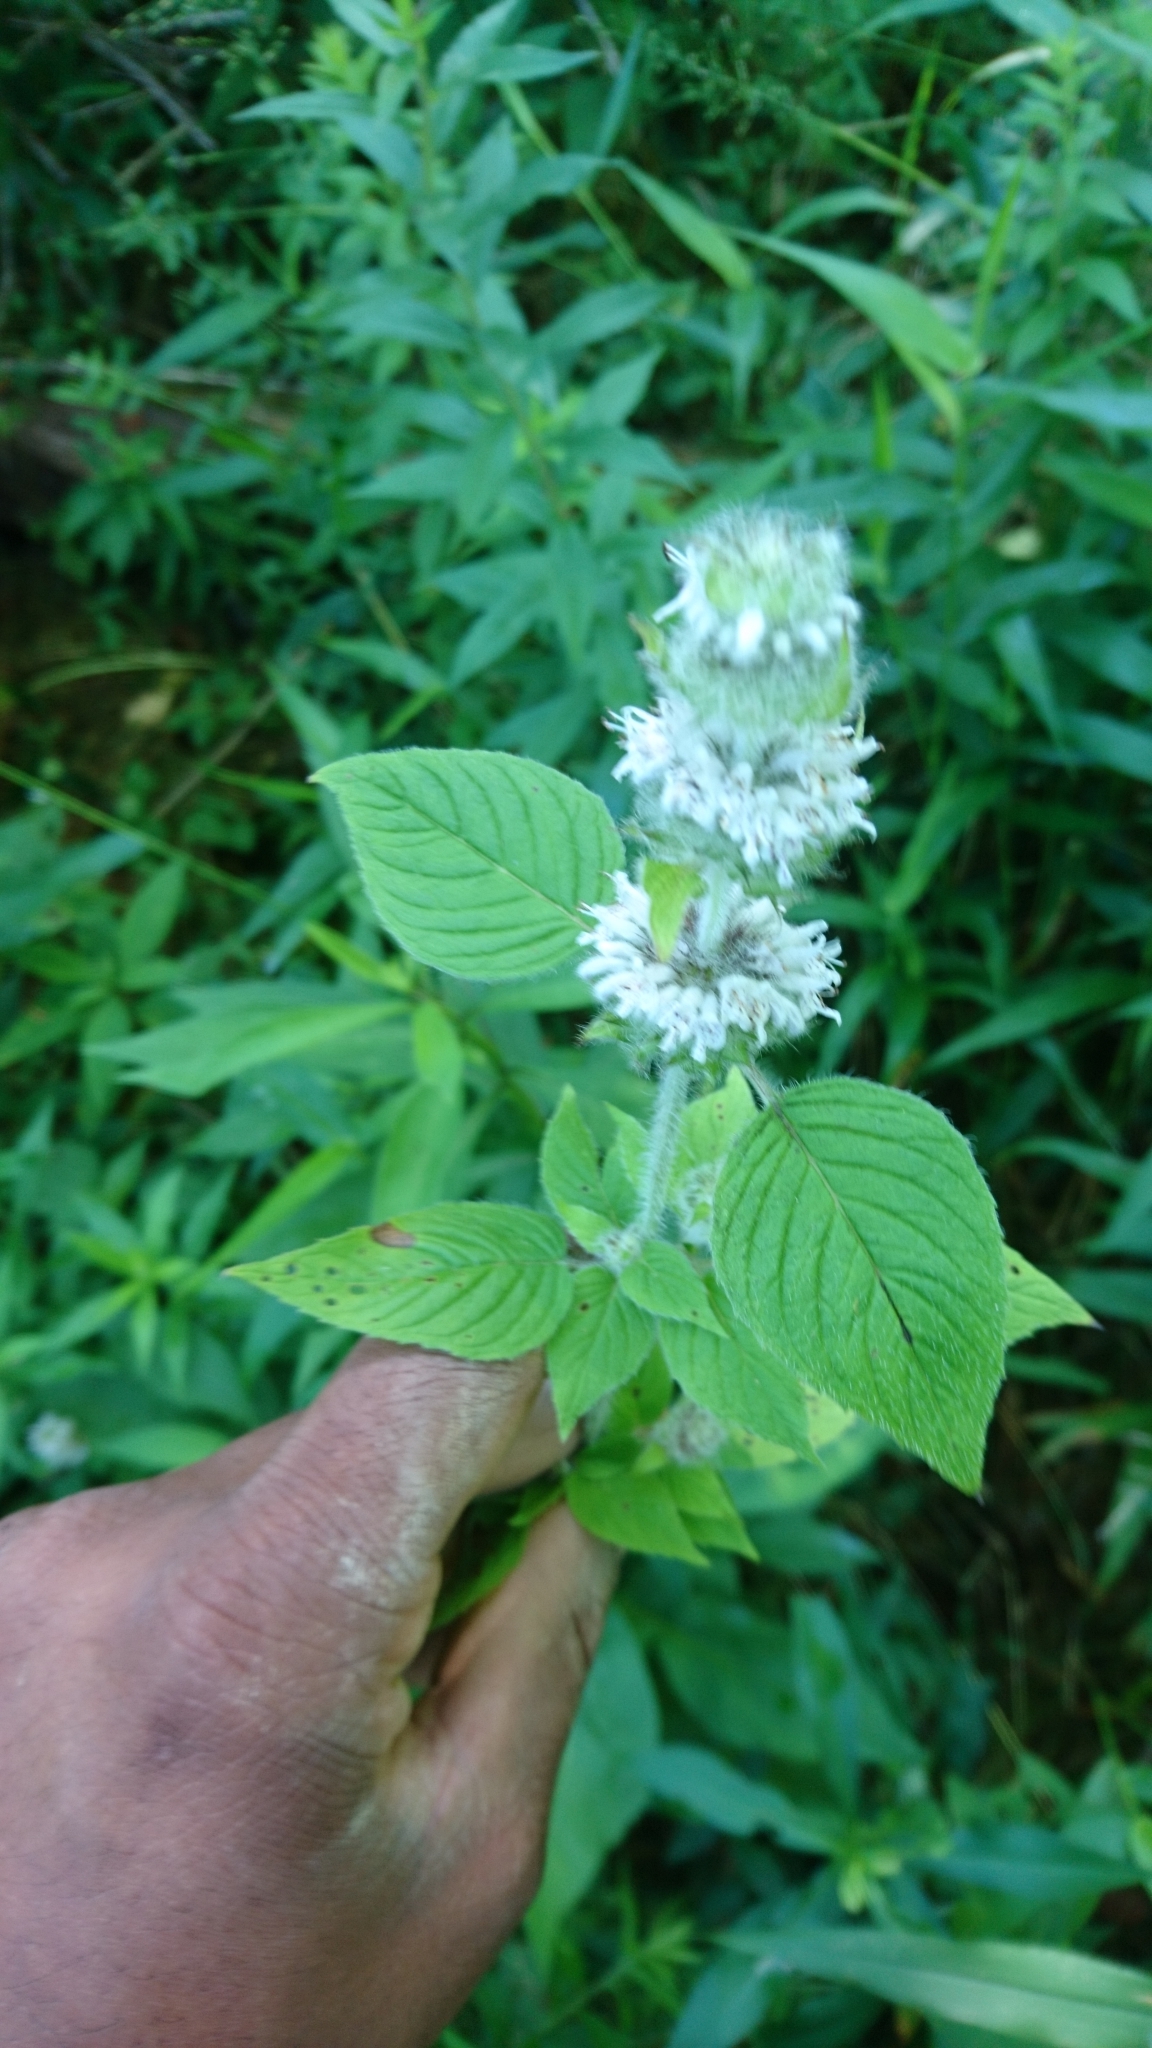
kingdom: Plantae
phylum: Tracheophyta
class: Magnoliopsida
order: Lamiales
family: Lamiaceae
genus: Blephilia
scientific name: Blephilia hirsuta
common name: Hairy blephilia
